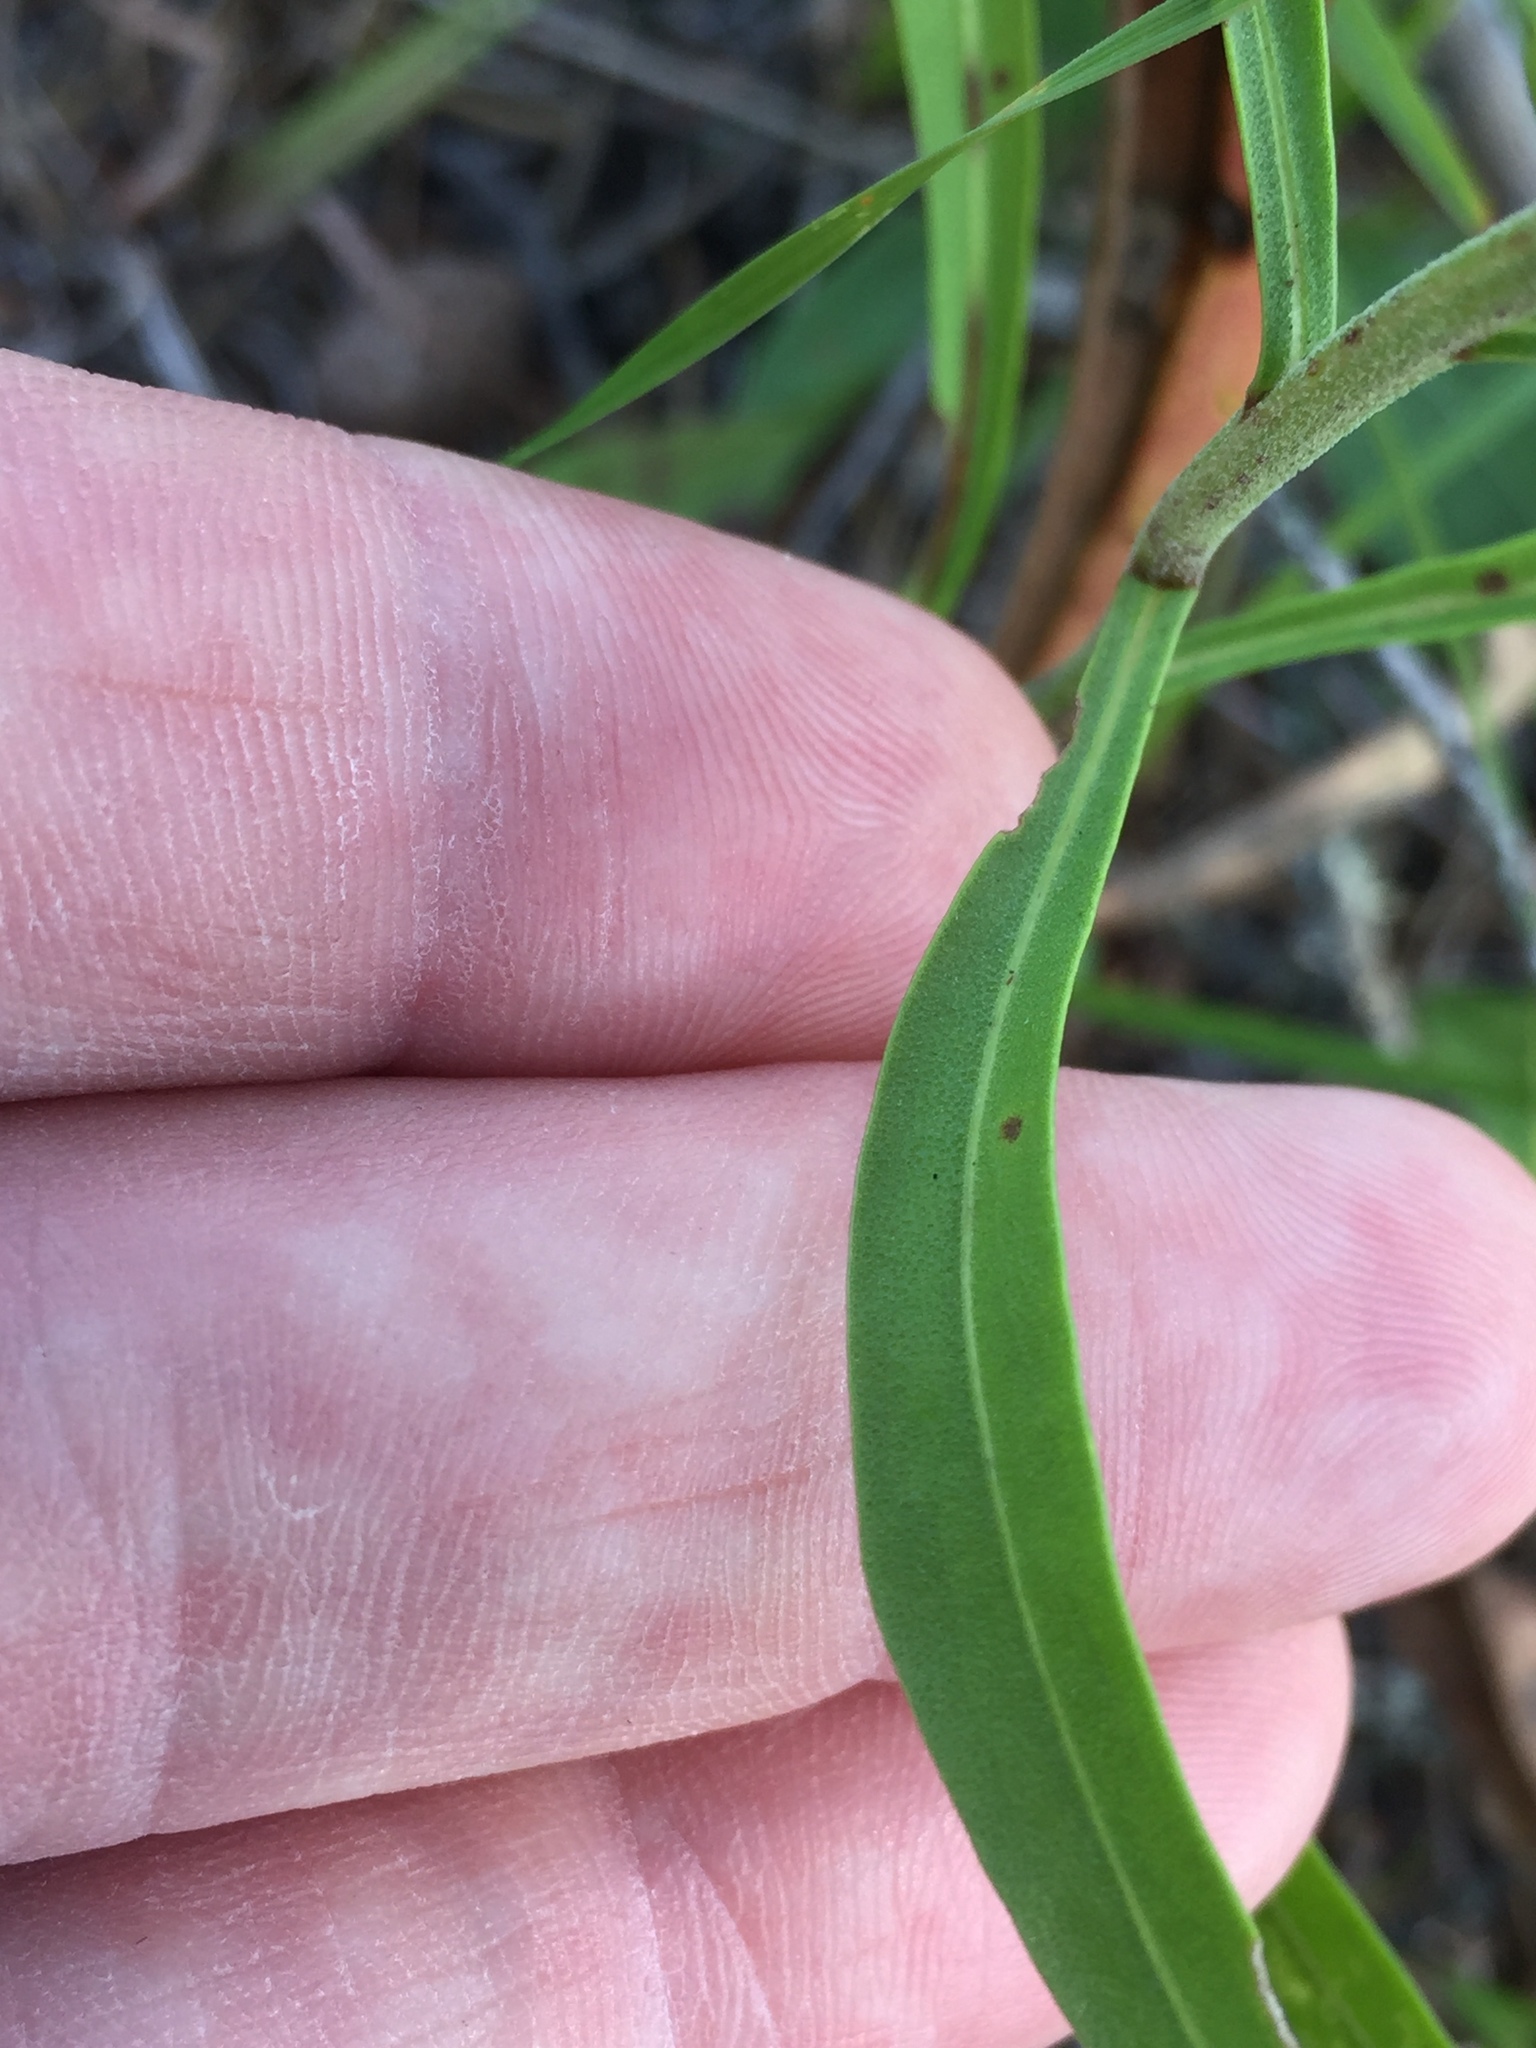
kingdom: Plantae
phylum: Tracheophyta
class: Magnoliopsida
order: Asterales
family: Asteraceae
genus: Liatris
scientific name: Liatris aspera
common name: Lacerate blazing-star
